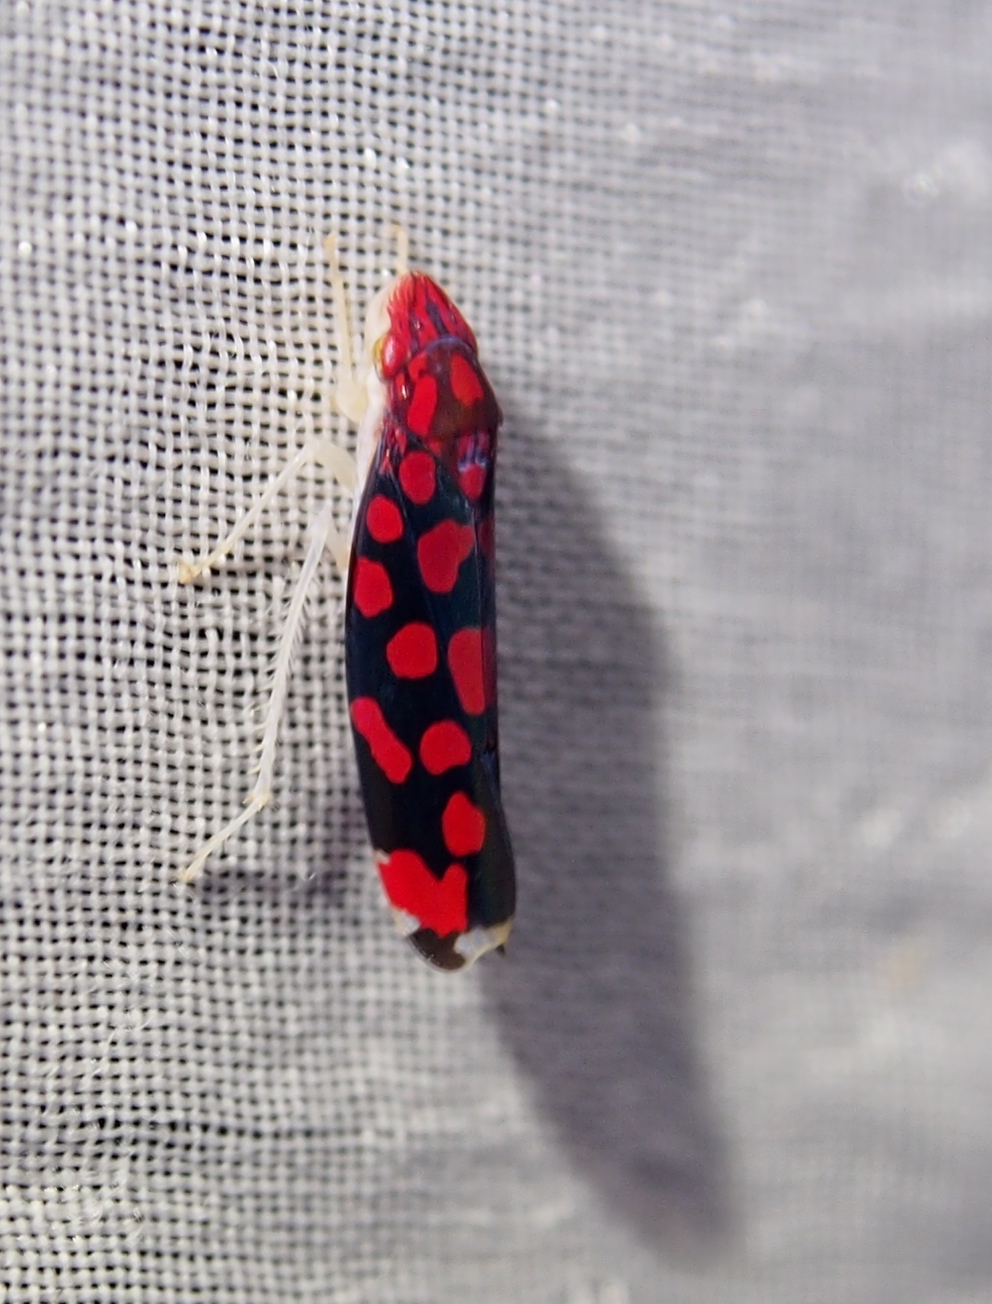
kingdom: Animalia
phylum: Arthropoda
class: Insecta
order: Hemiptera
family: Cicadellidae
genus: Ladoffa
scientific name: Ladoffa arcuata
